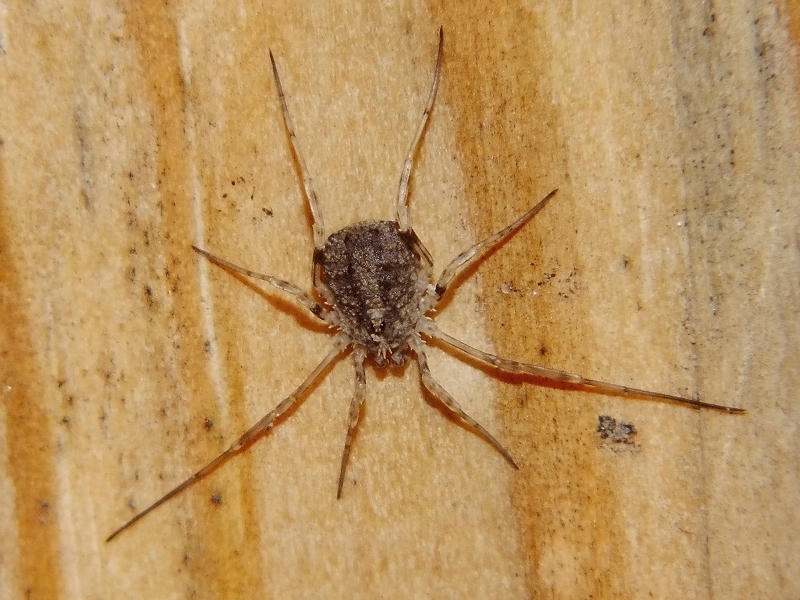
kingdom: Animalia
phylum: Arthropoda
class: Arachnida
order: Opiliones
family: Phalangiidae
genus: Odiellus
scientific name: Odiellus lendlii
